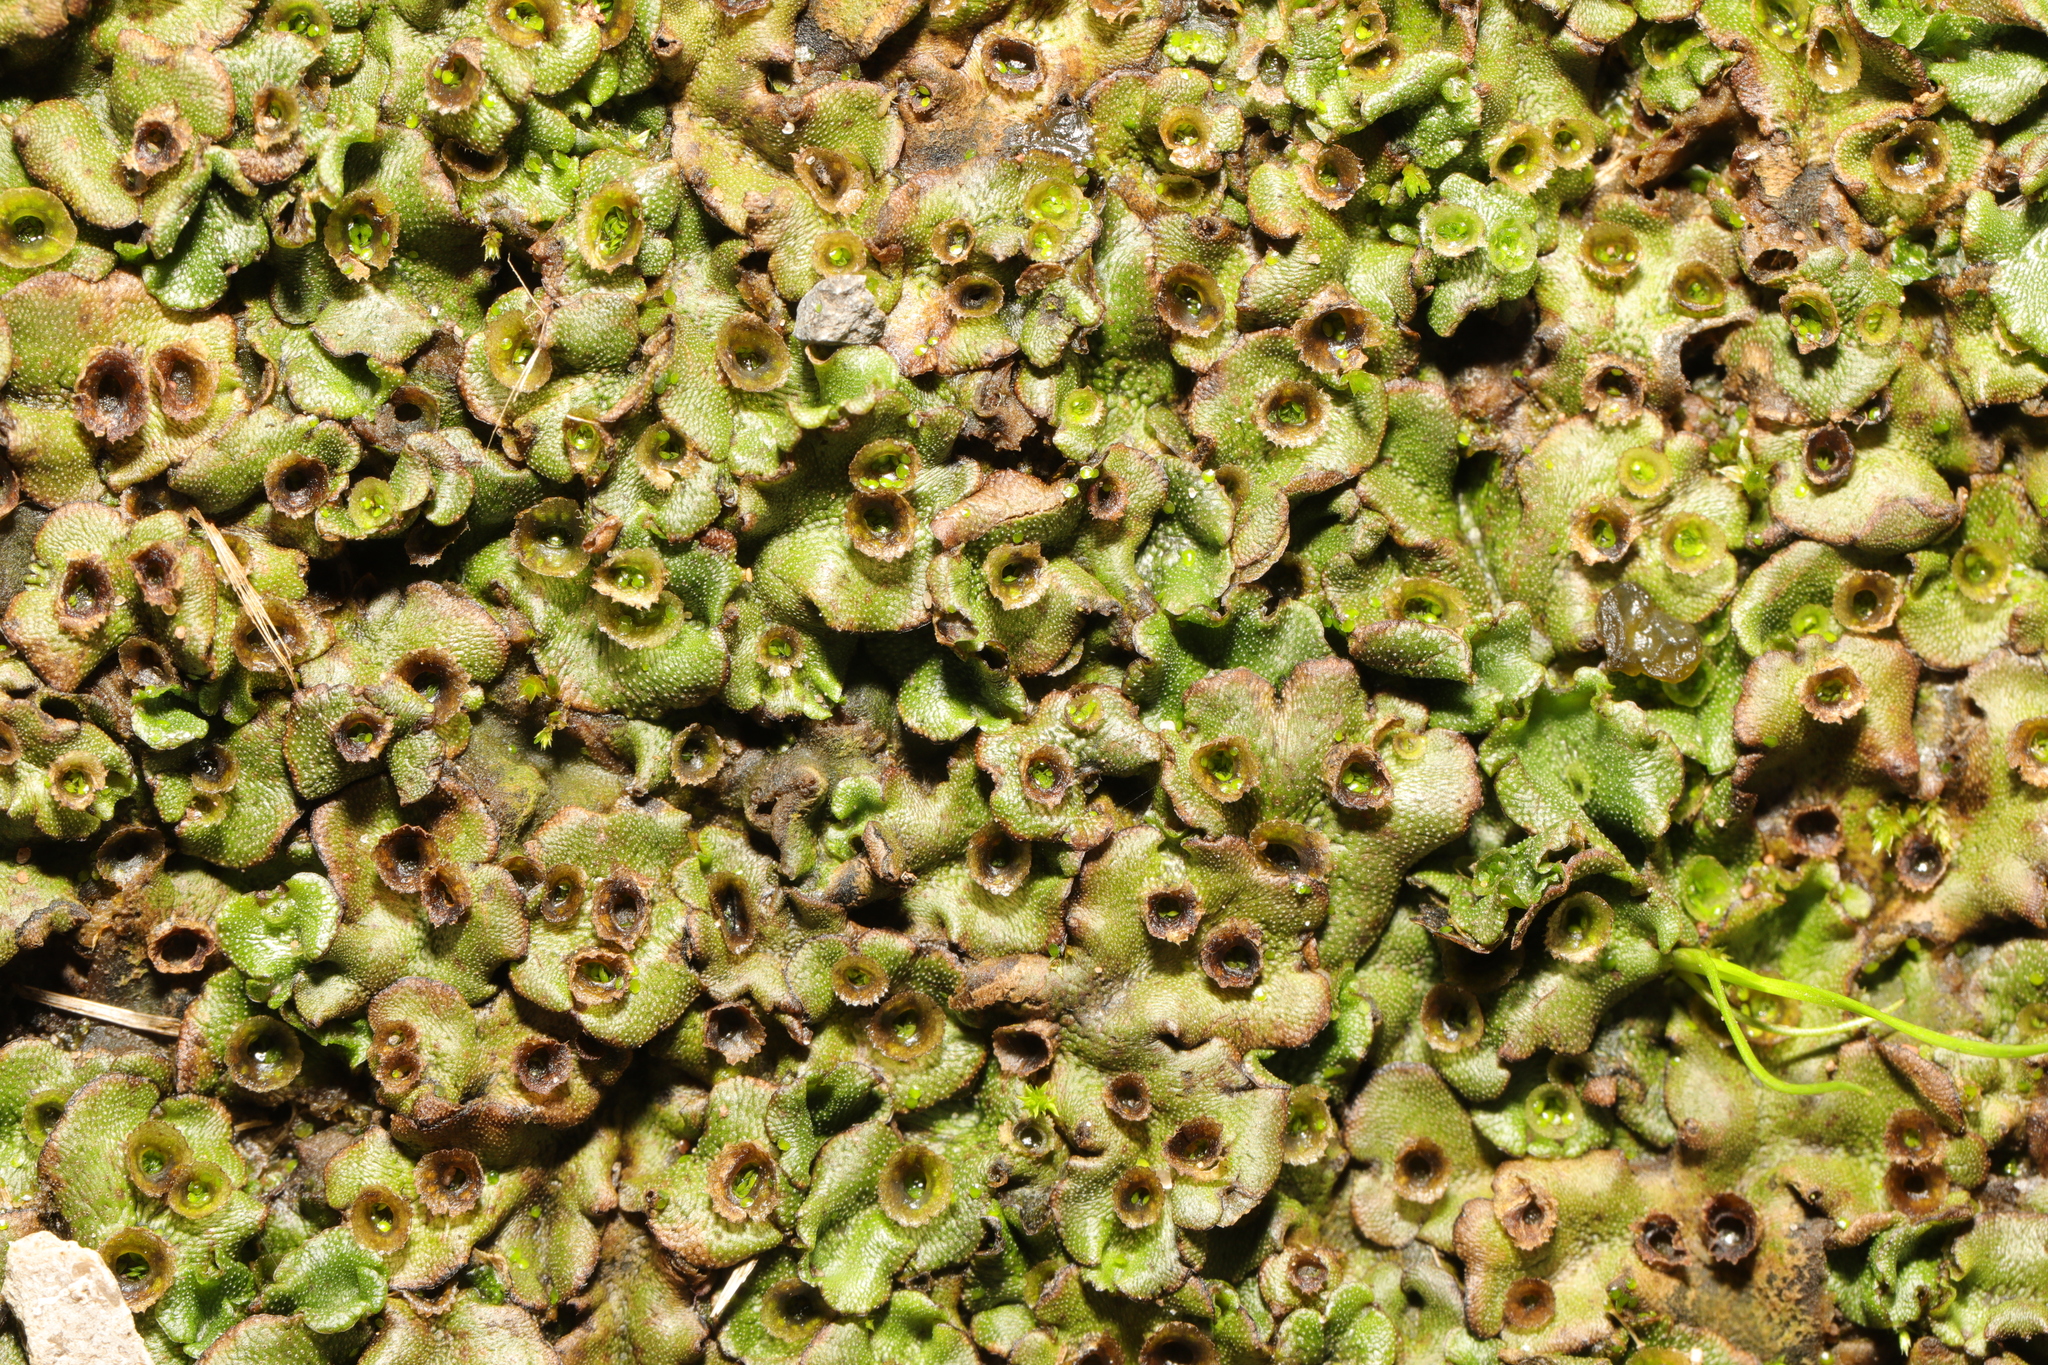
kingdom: Plantae
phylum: Marchantiophyta
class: Marchantiopsida
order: Marchantiales
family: Marchantiaceae
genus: Marchantia
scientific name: Marchantia polymorpha
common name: Common liverwort
